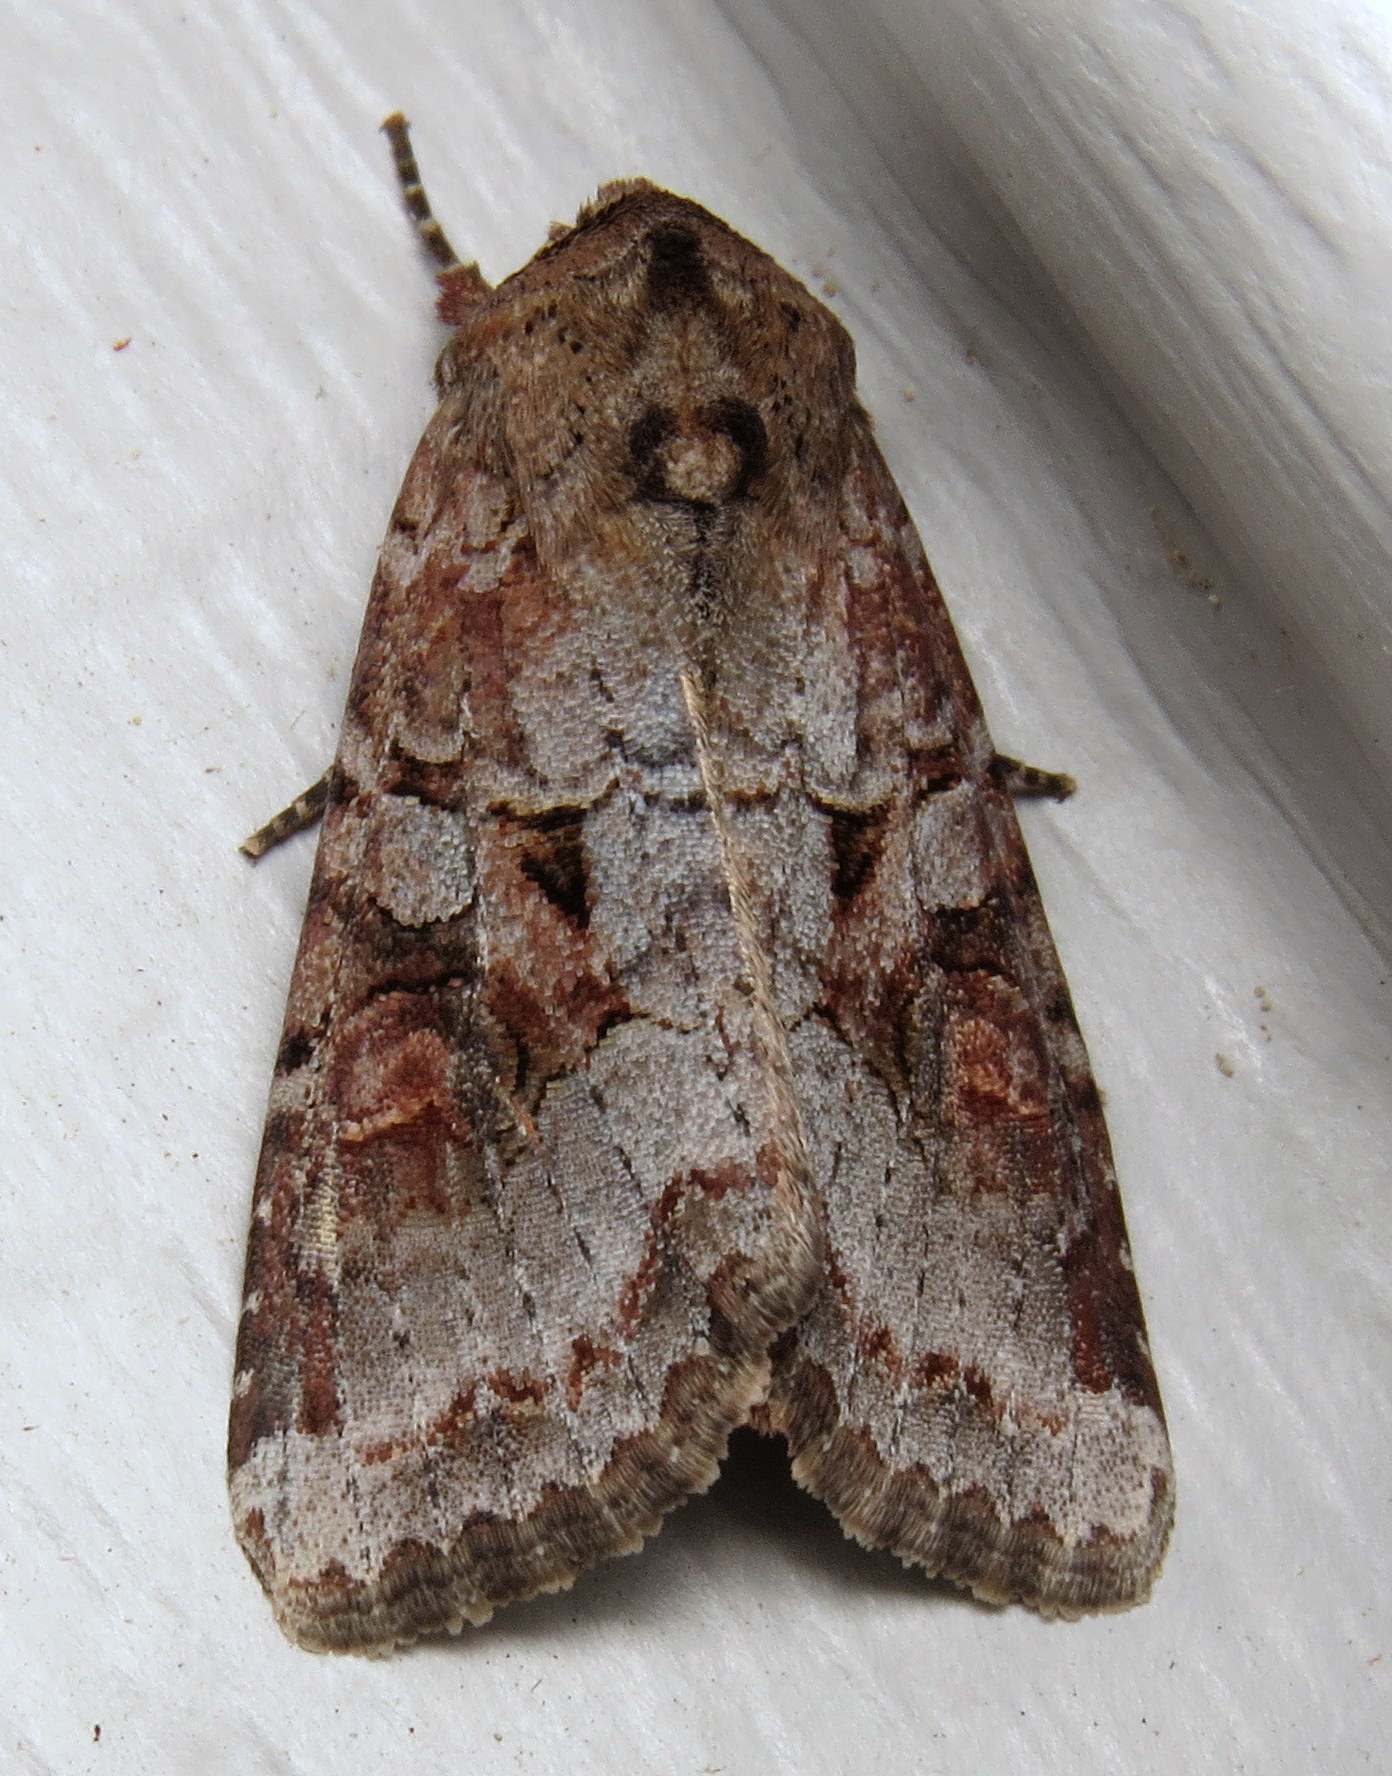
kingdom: Animalia
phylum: Arthropoda
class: Insecta
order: Lepidoptera
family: Noctuidae
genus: Trichordestra
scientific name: Trichordestra legitima
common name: Striped garden caterpillar
